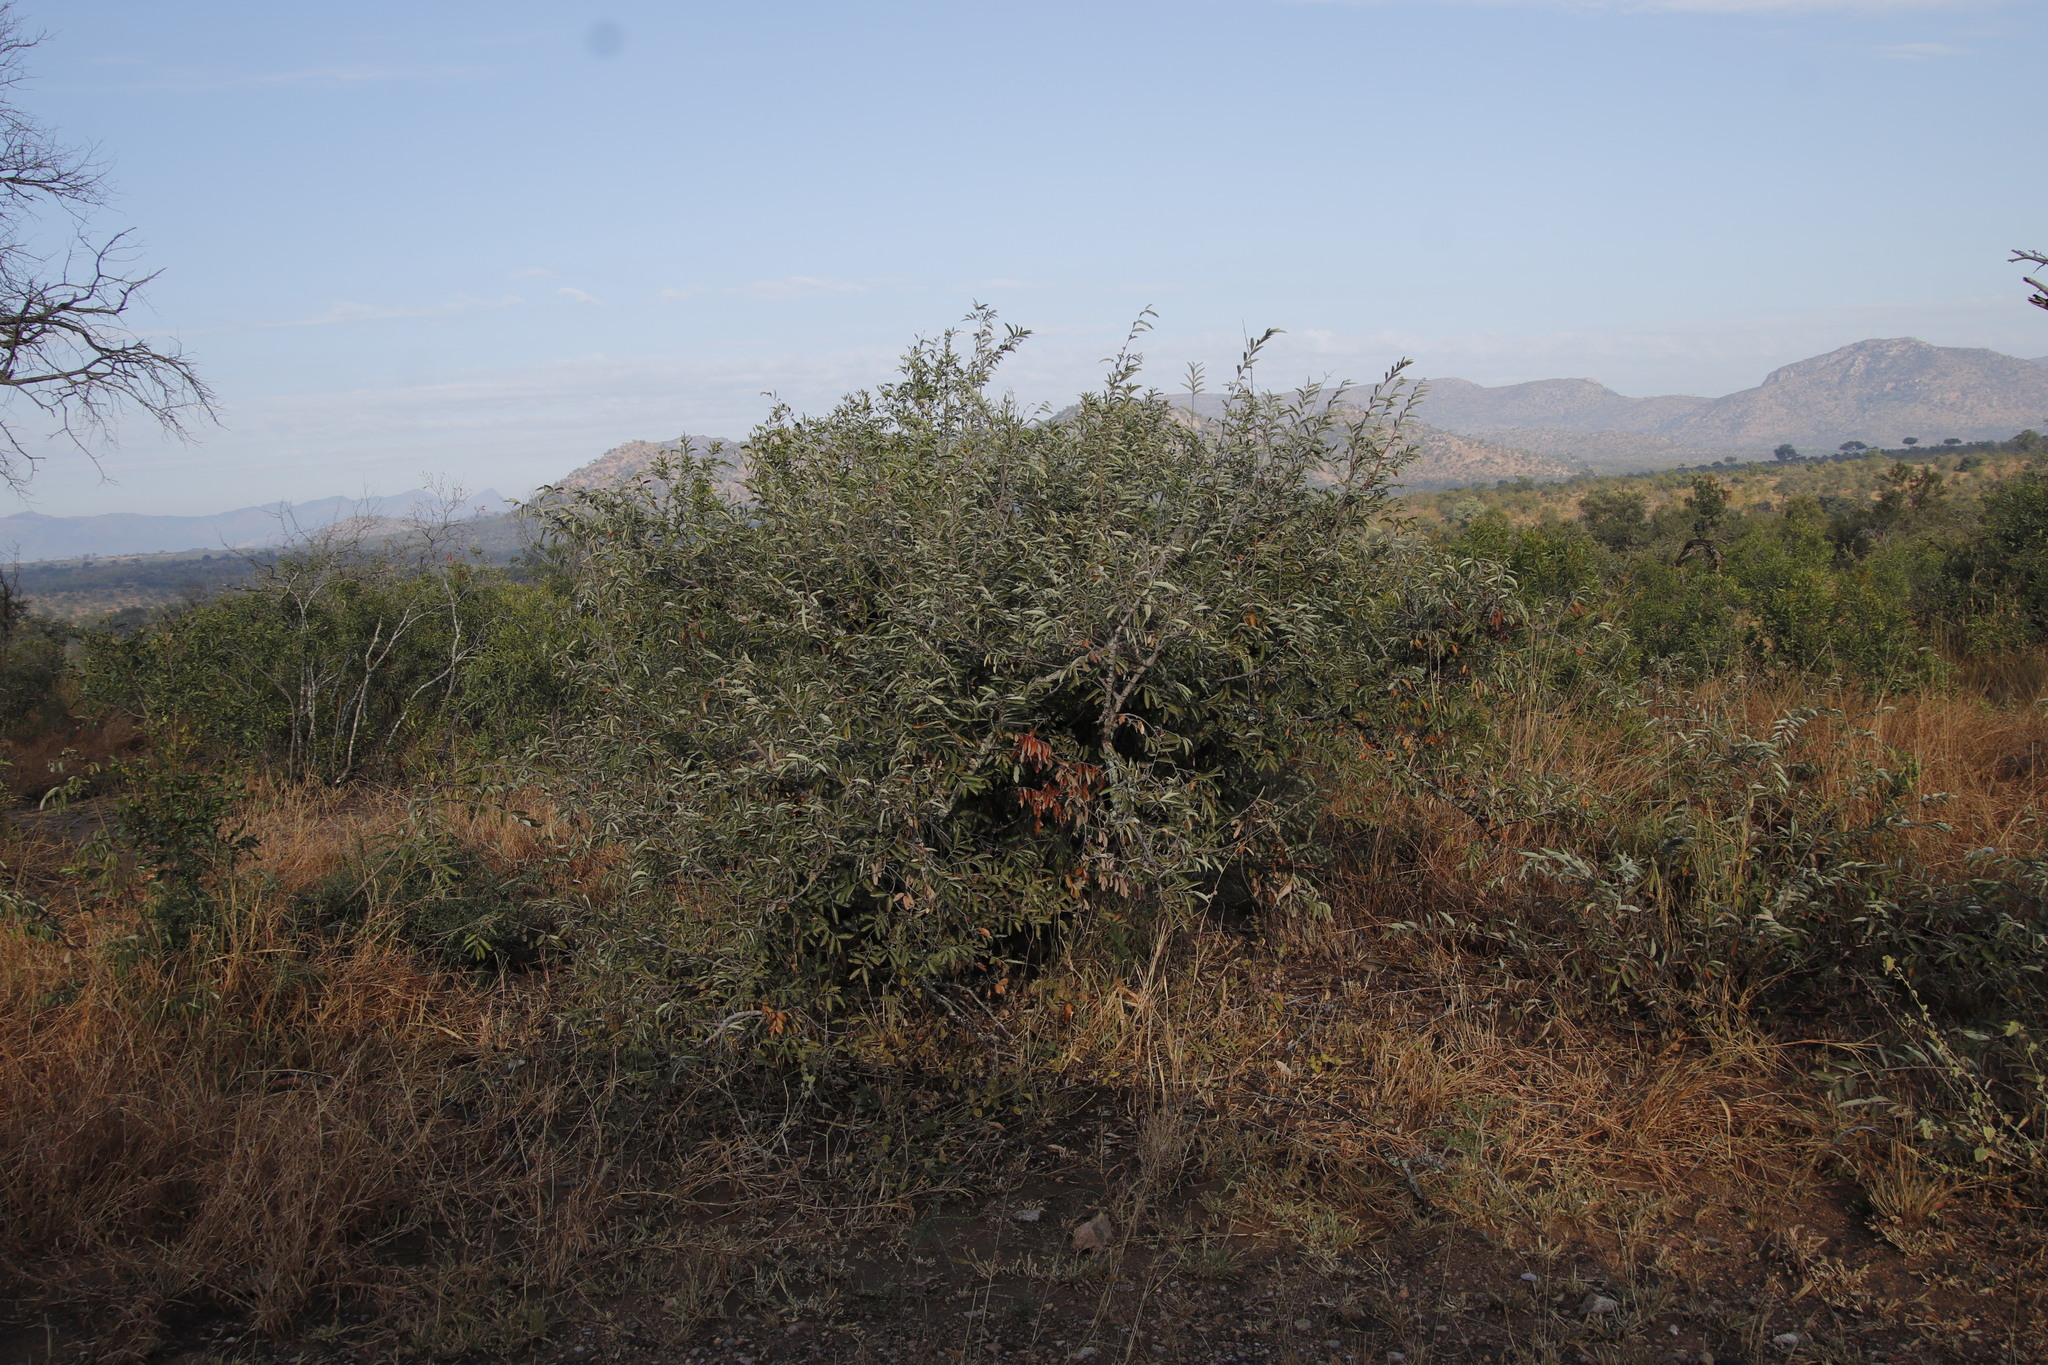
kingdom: Plantae
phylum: Tracheophyta
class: Magnoliopsida
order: Malvales
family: Malvaceae
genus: Grewia
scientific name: Grewia bicolor
